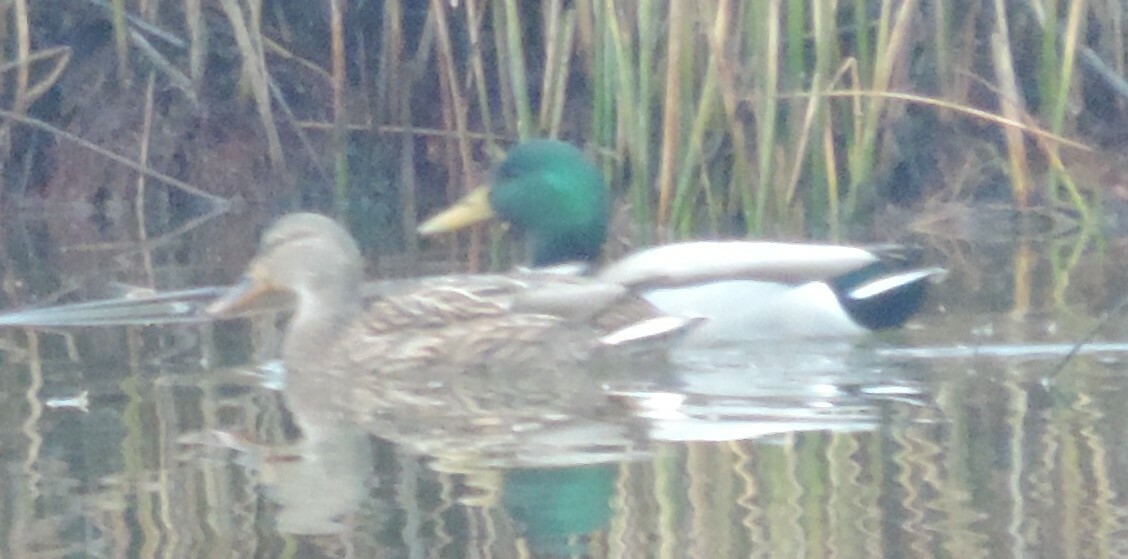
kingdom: Animalia
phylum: Chordata
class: Aves
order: Anseriformes
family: Anatidae
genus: Anas
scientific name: Anas platyrhynchos
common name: Mallard
